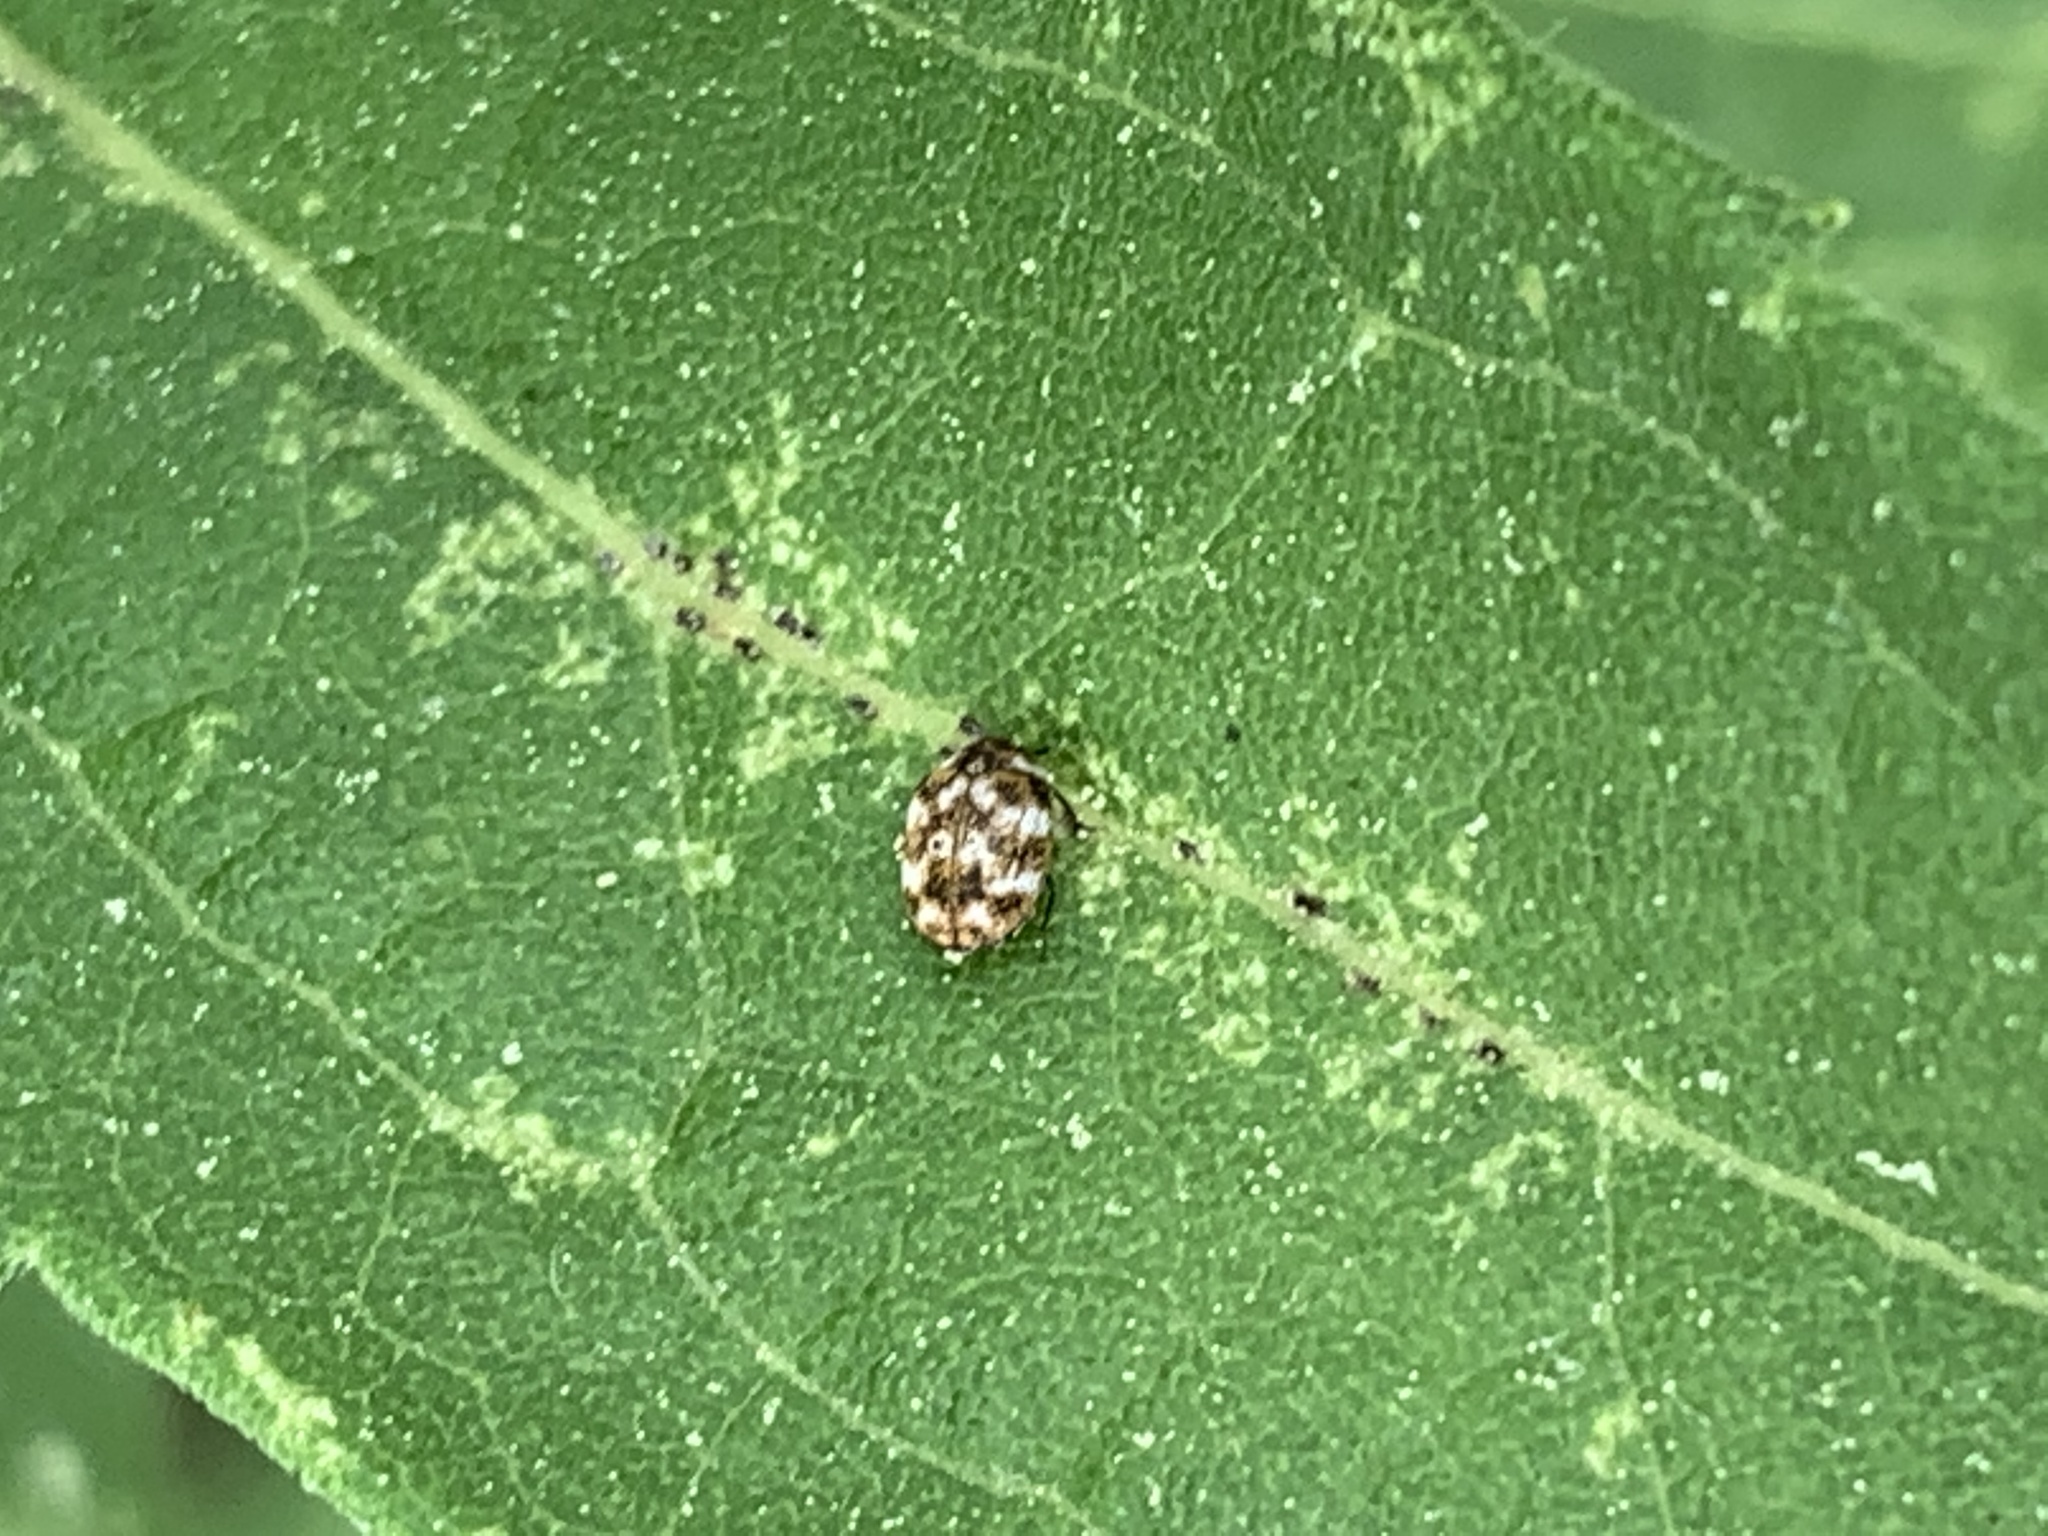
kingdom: Animalia
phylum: Arthropoda
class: Insecta
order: Coleoptera
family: Dermestidae
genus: Anthrenus
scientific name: Anthrenus verbasci
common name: Varied carpet beetle
